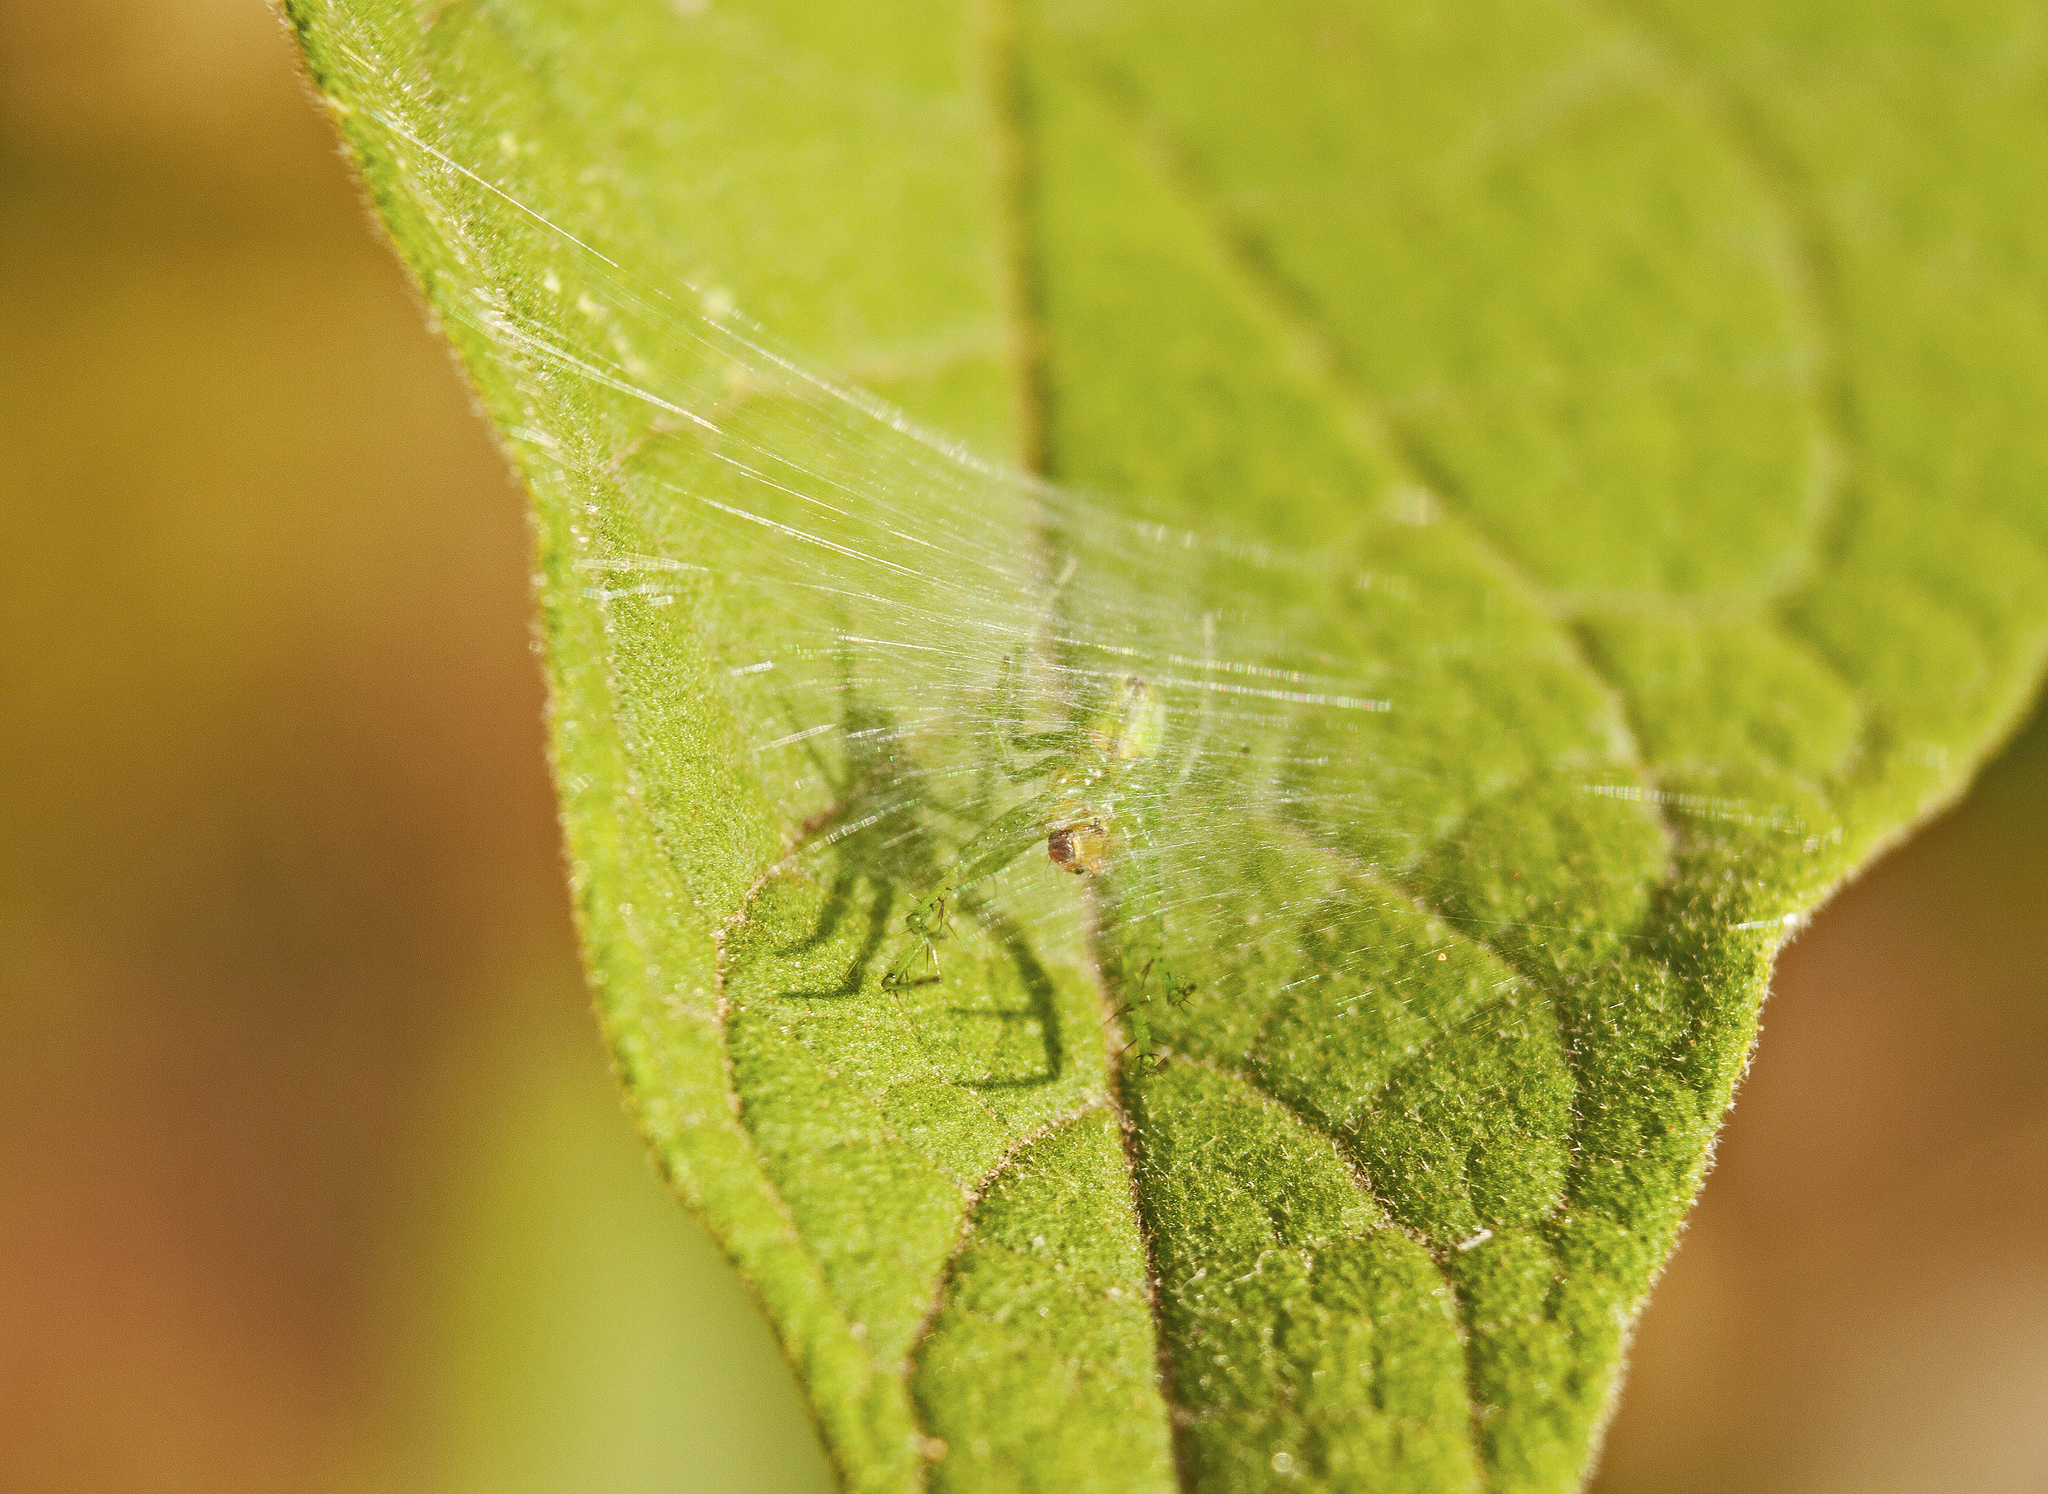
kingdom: Animalia
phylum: Arthropoda
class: Arachnida
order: Araneae
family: Araneidae
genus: Bijoaraneus
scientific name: Bijoaraneus praesignis
